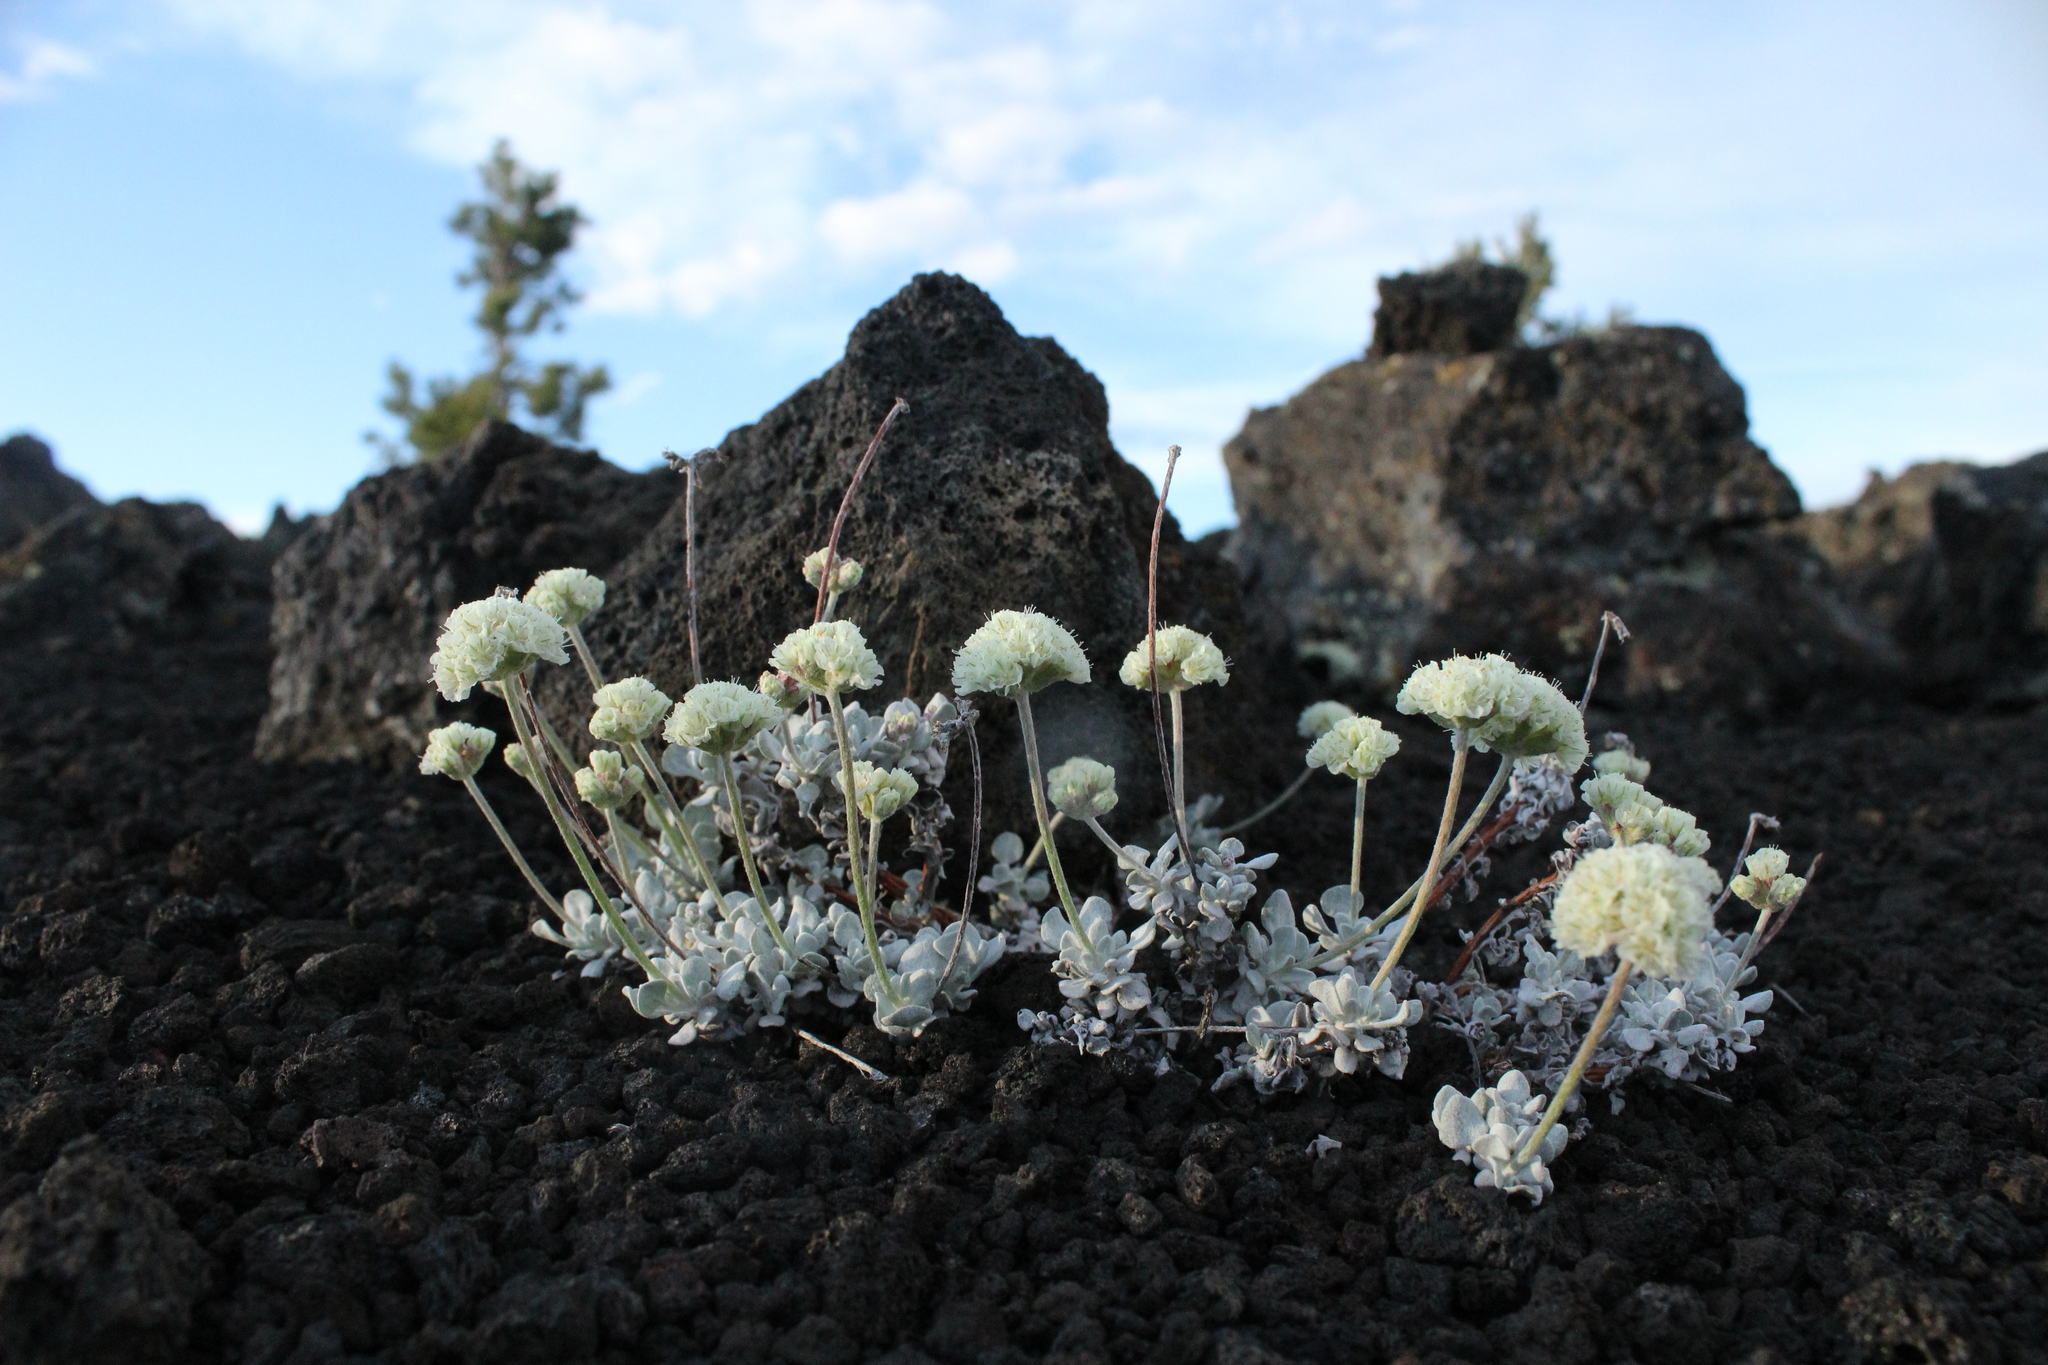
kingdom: Plantae
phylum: Tracheophyta
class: Magnoliopsida
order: Caryophyllales
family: Polygonaceae
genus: Eriogonum
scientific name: Eriogonum ovalifolium
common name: Cushion buckwheat
